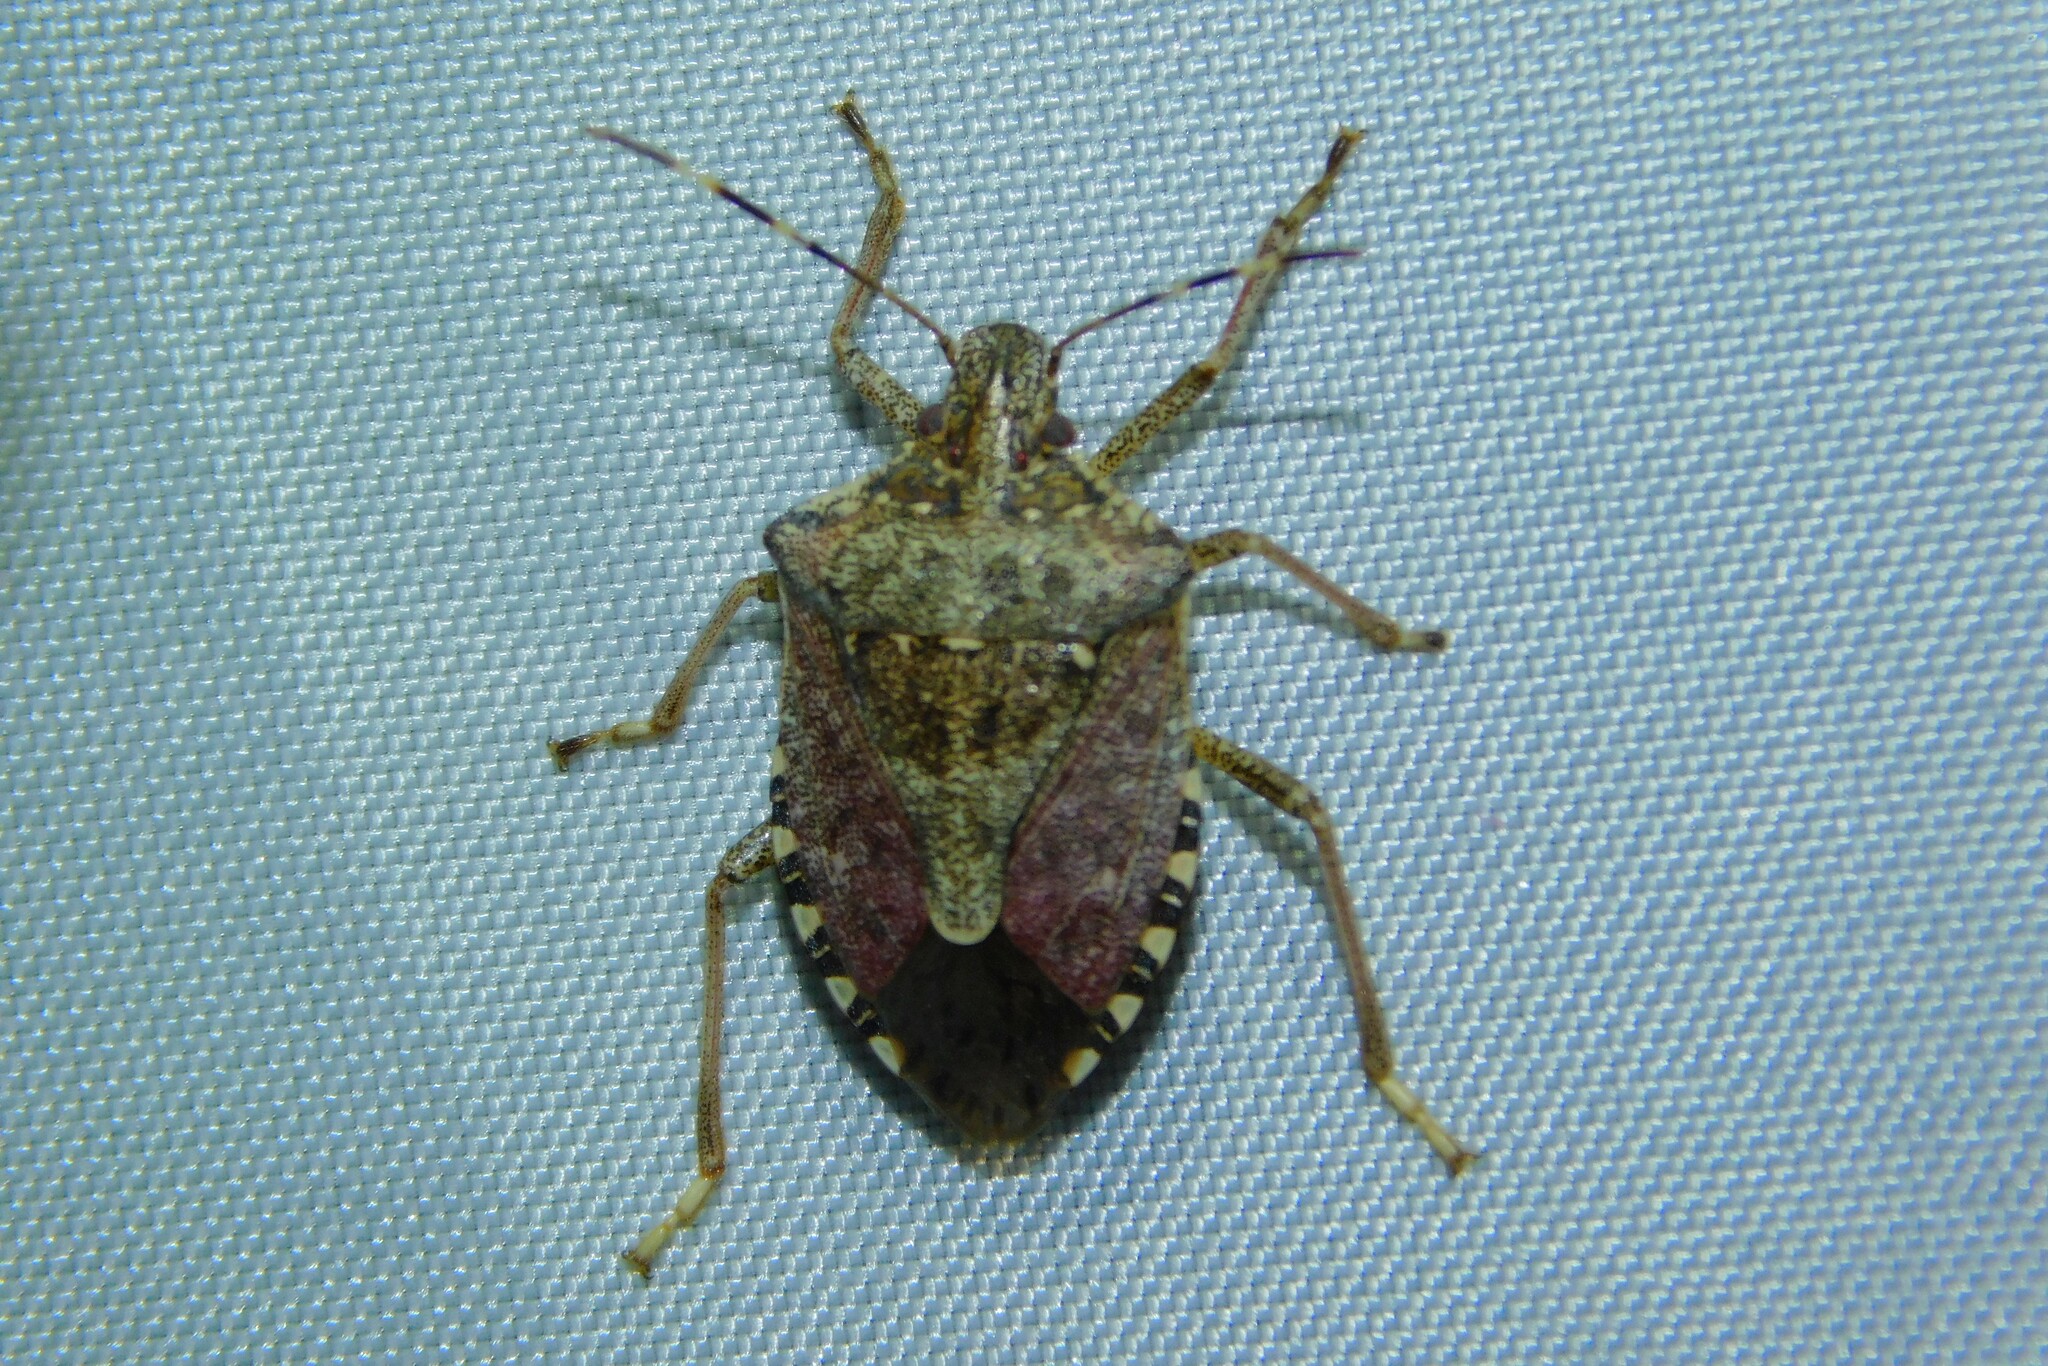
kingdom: Animalia
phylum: Arthropoda
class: Insecta
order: Hemiptera
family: Pentatomidae
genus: Halyomorpha
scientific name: Halyomorpha halys
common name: Brown marmorated stink bug
